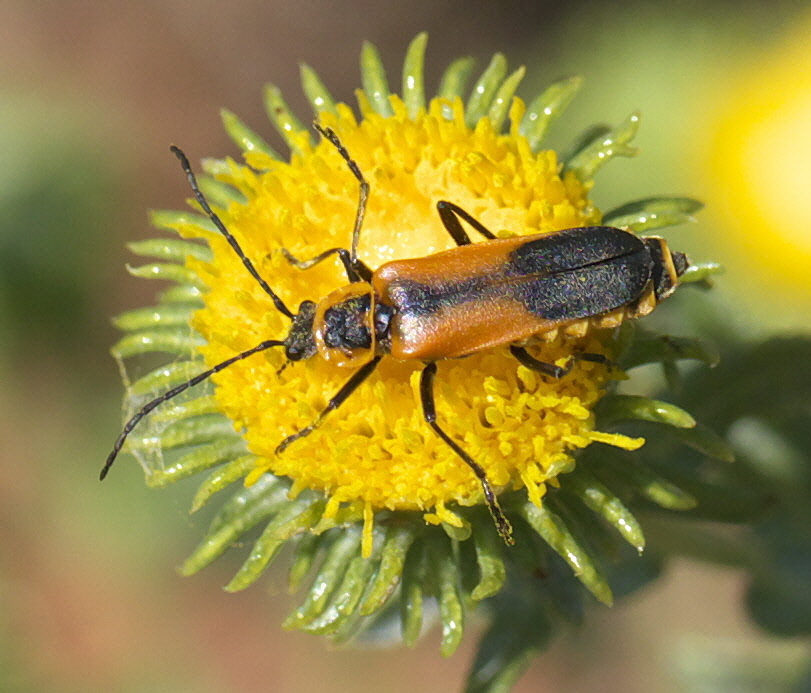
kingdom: Animalia
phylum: Arthropoda
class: Insecta
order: Coleoptera
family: Cantharidae
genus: Chauliognathus
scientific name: Chauliognathus limbicollis
